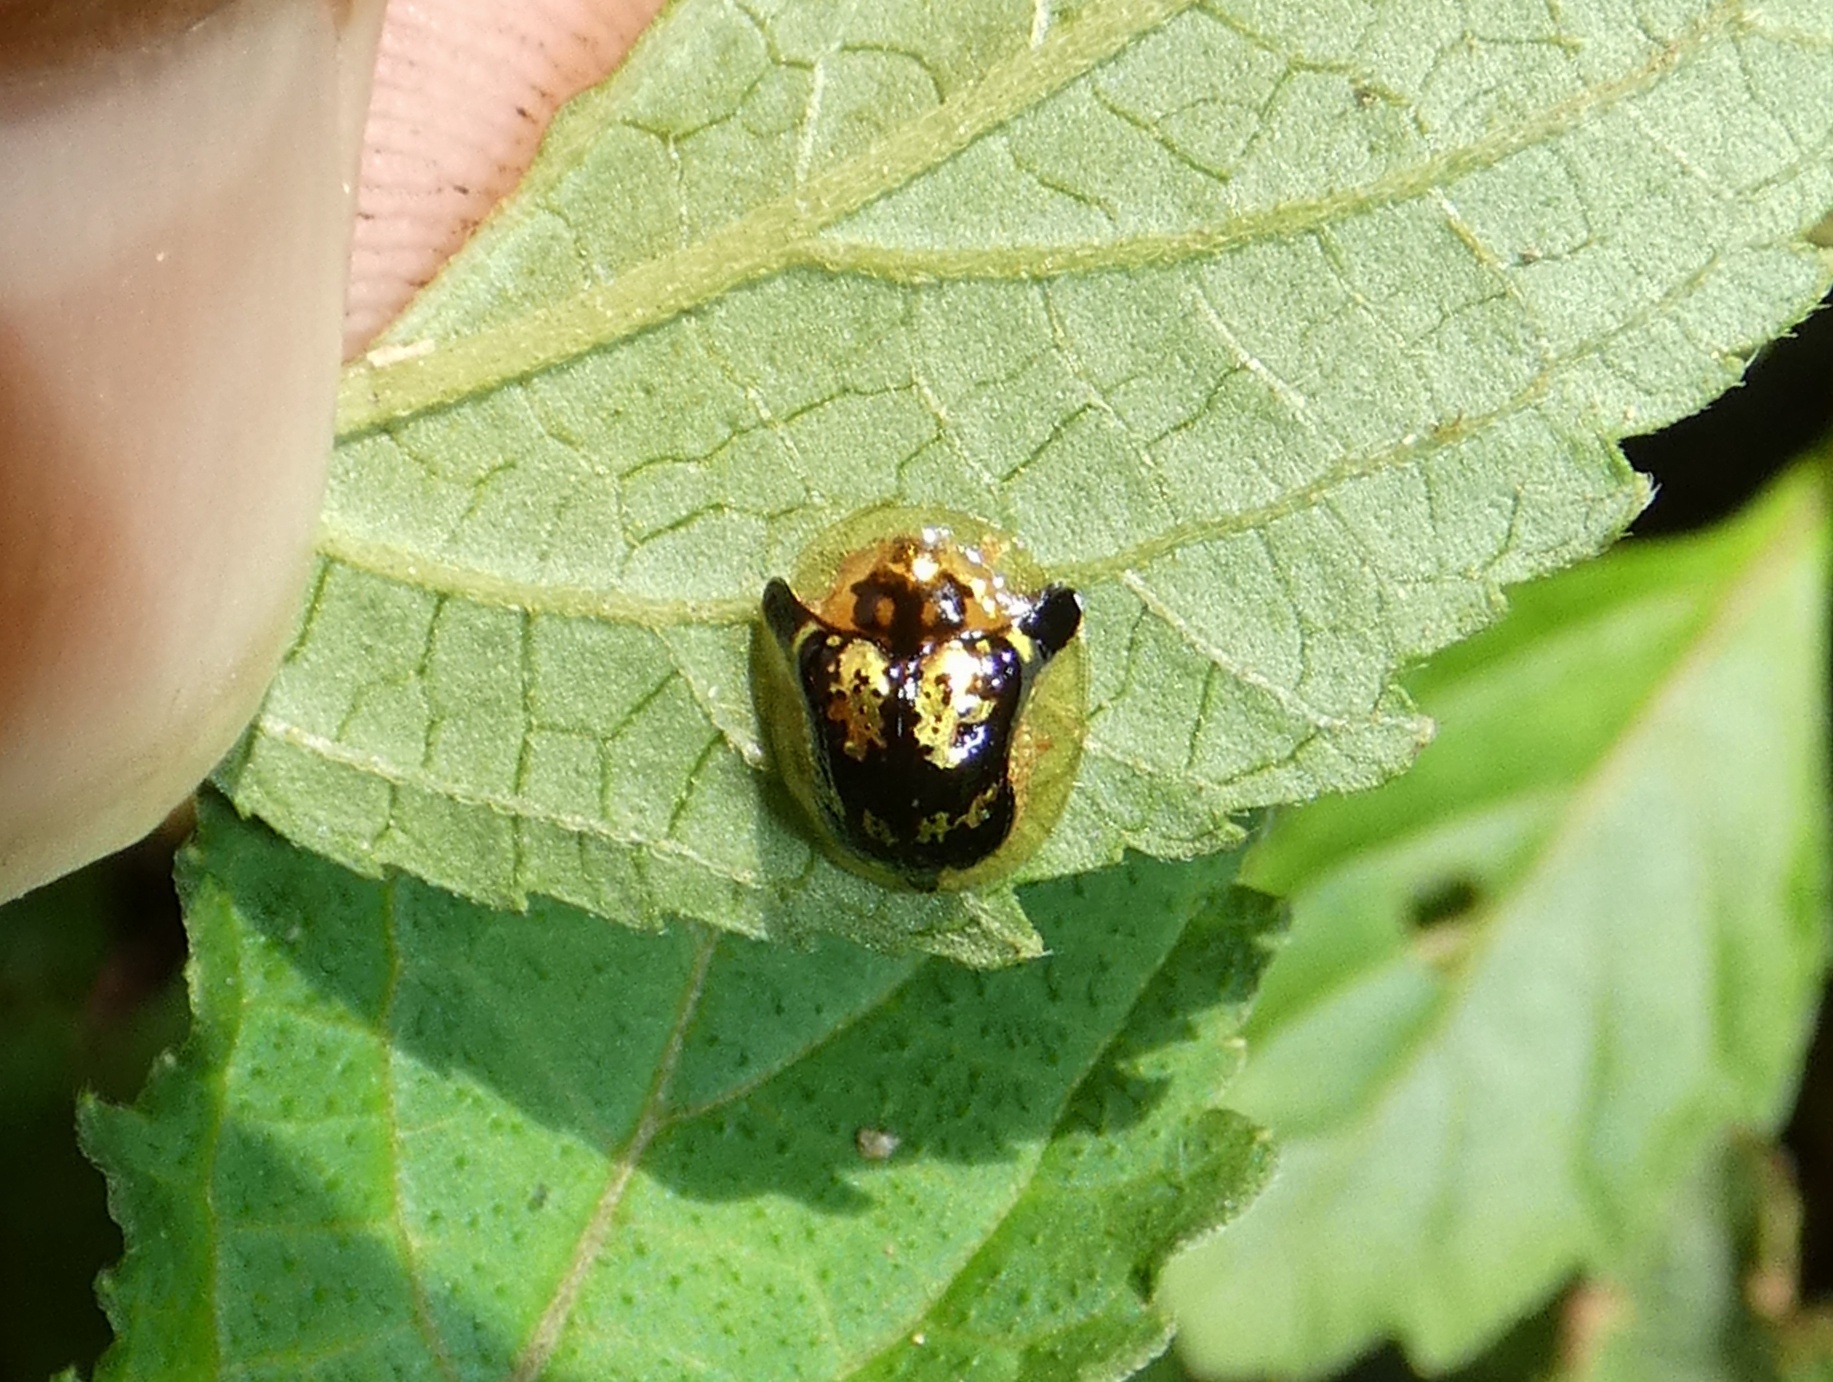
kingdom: Animalia
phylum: Arthropoda
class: Insecta
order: Coleoptera
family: Chrysomelidae
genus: Deloyala
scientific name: Deloyala fuliginosa
